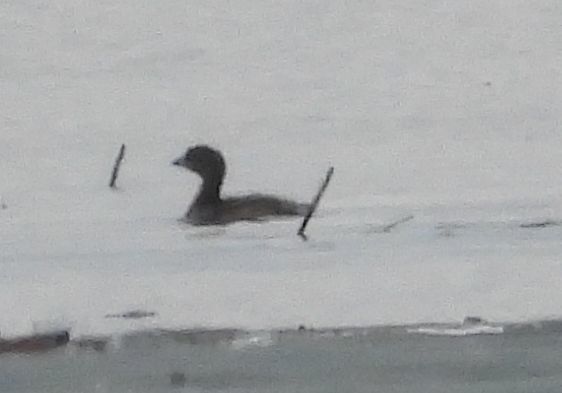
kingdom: Animalia
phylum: Chordata
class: Aves
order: Podicipediformes
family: Podicipedidae
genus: Podilymbus
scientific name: Podilymbus podiceps
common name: Pied-billed grebe
